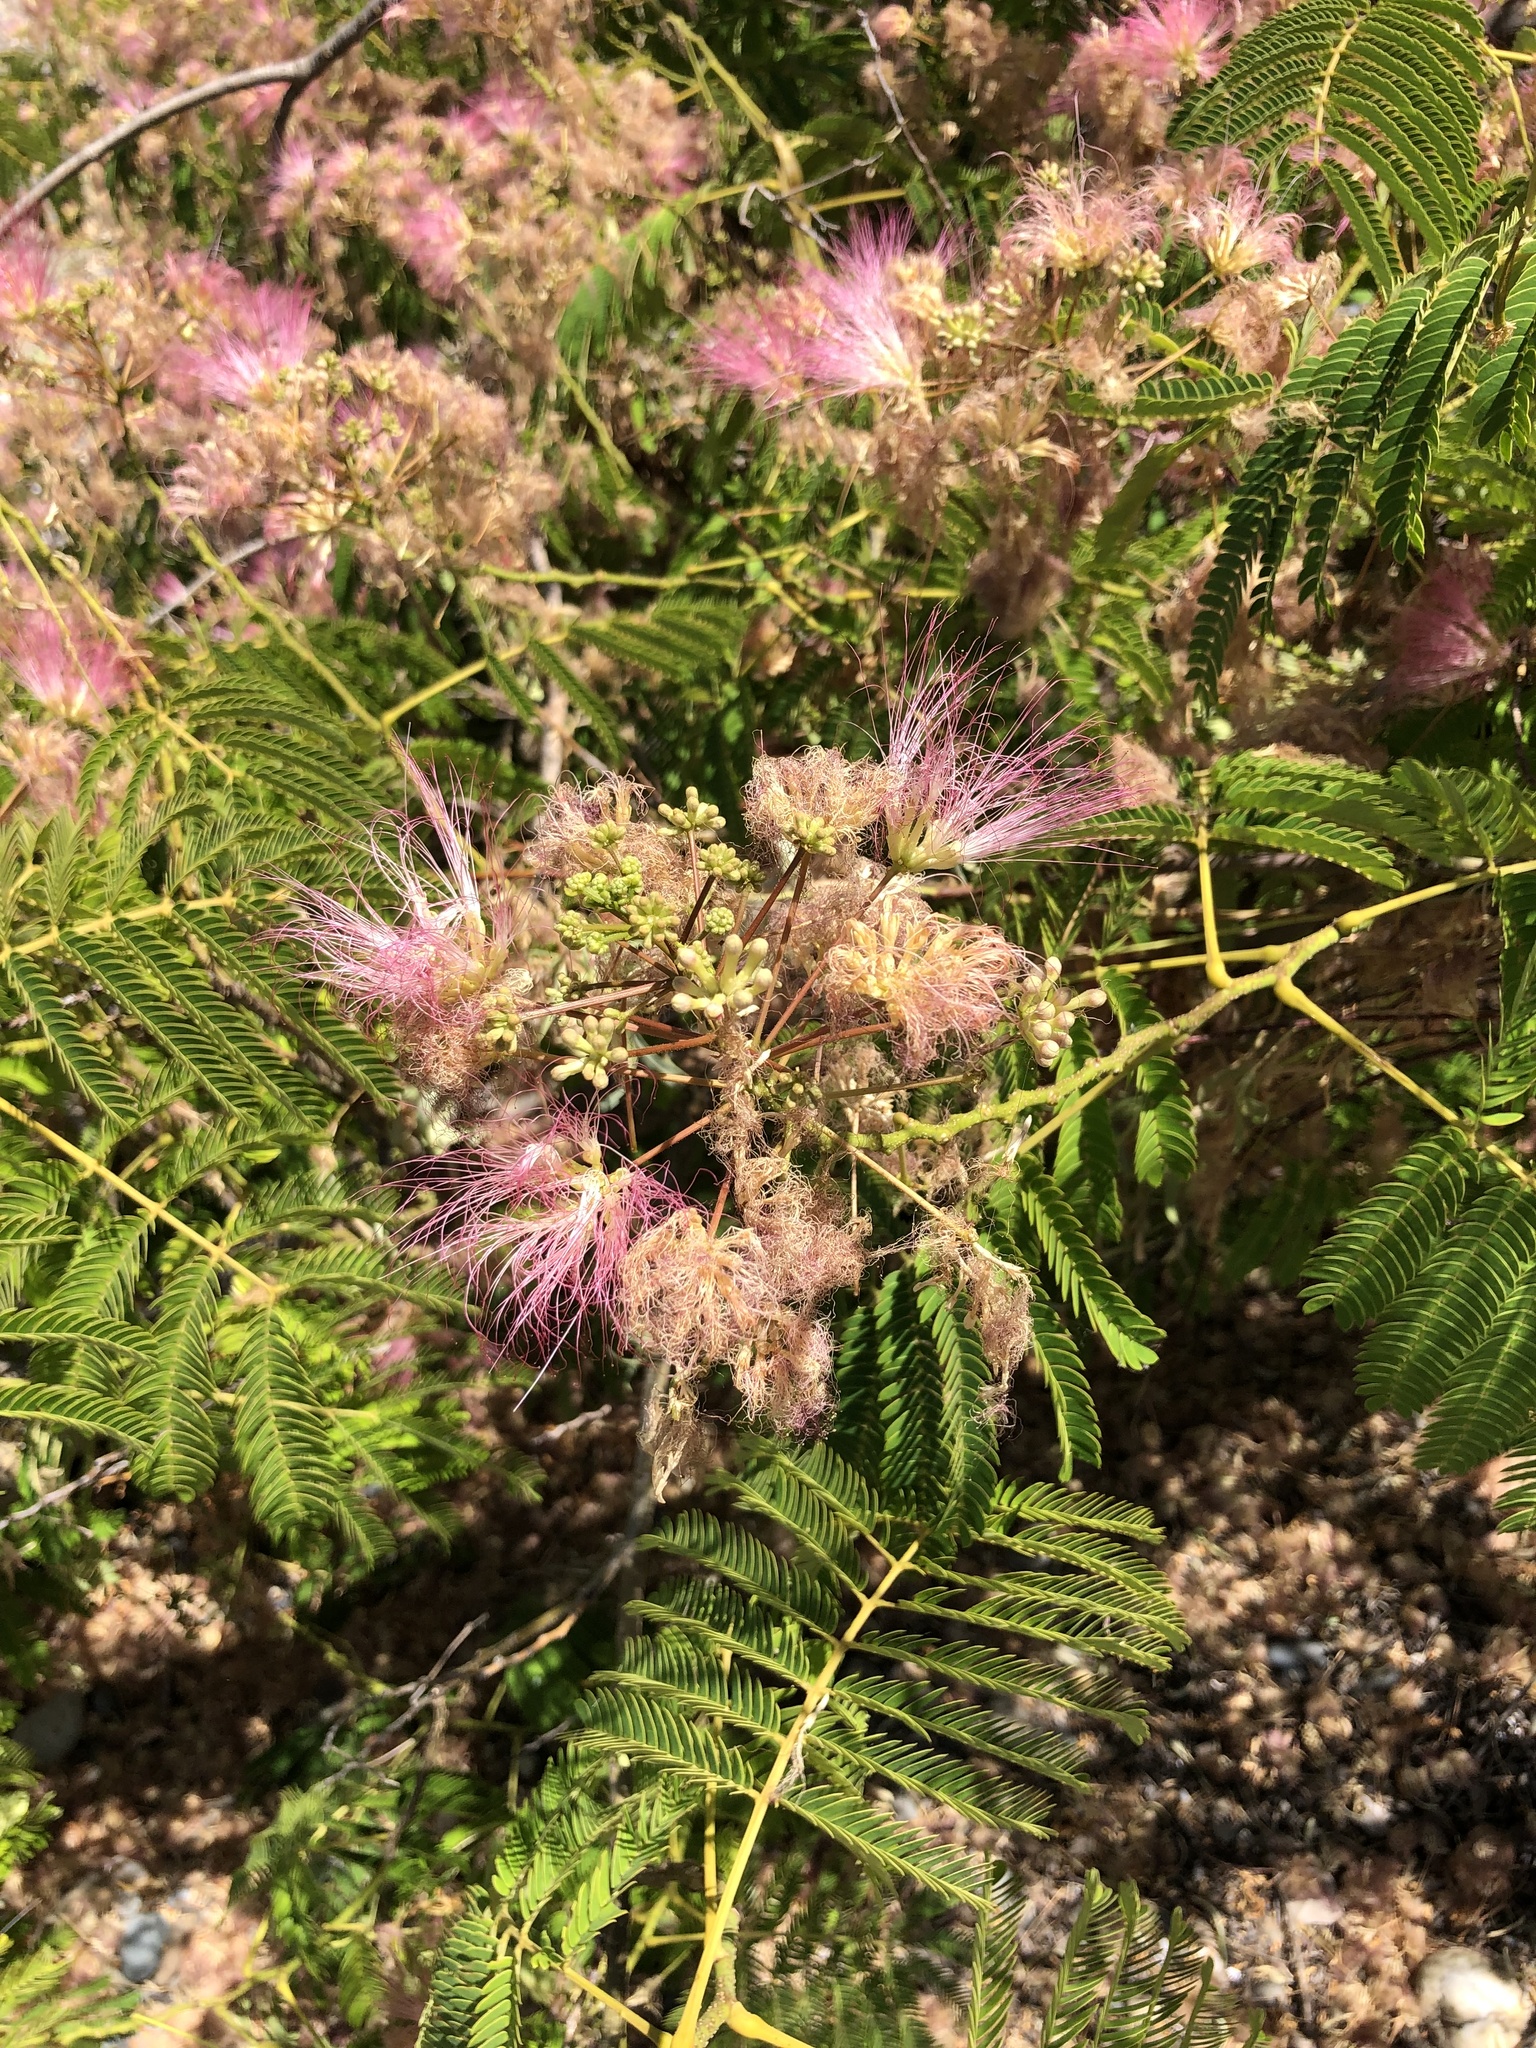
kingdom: Plantae
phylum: Tracheophyta
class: Magnoliopsida
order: Fabales
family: Fabaceae
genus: Albizia
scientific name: Albizia julibrissin
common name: Silktree
